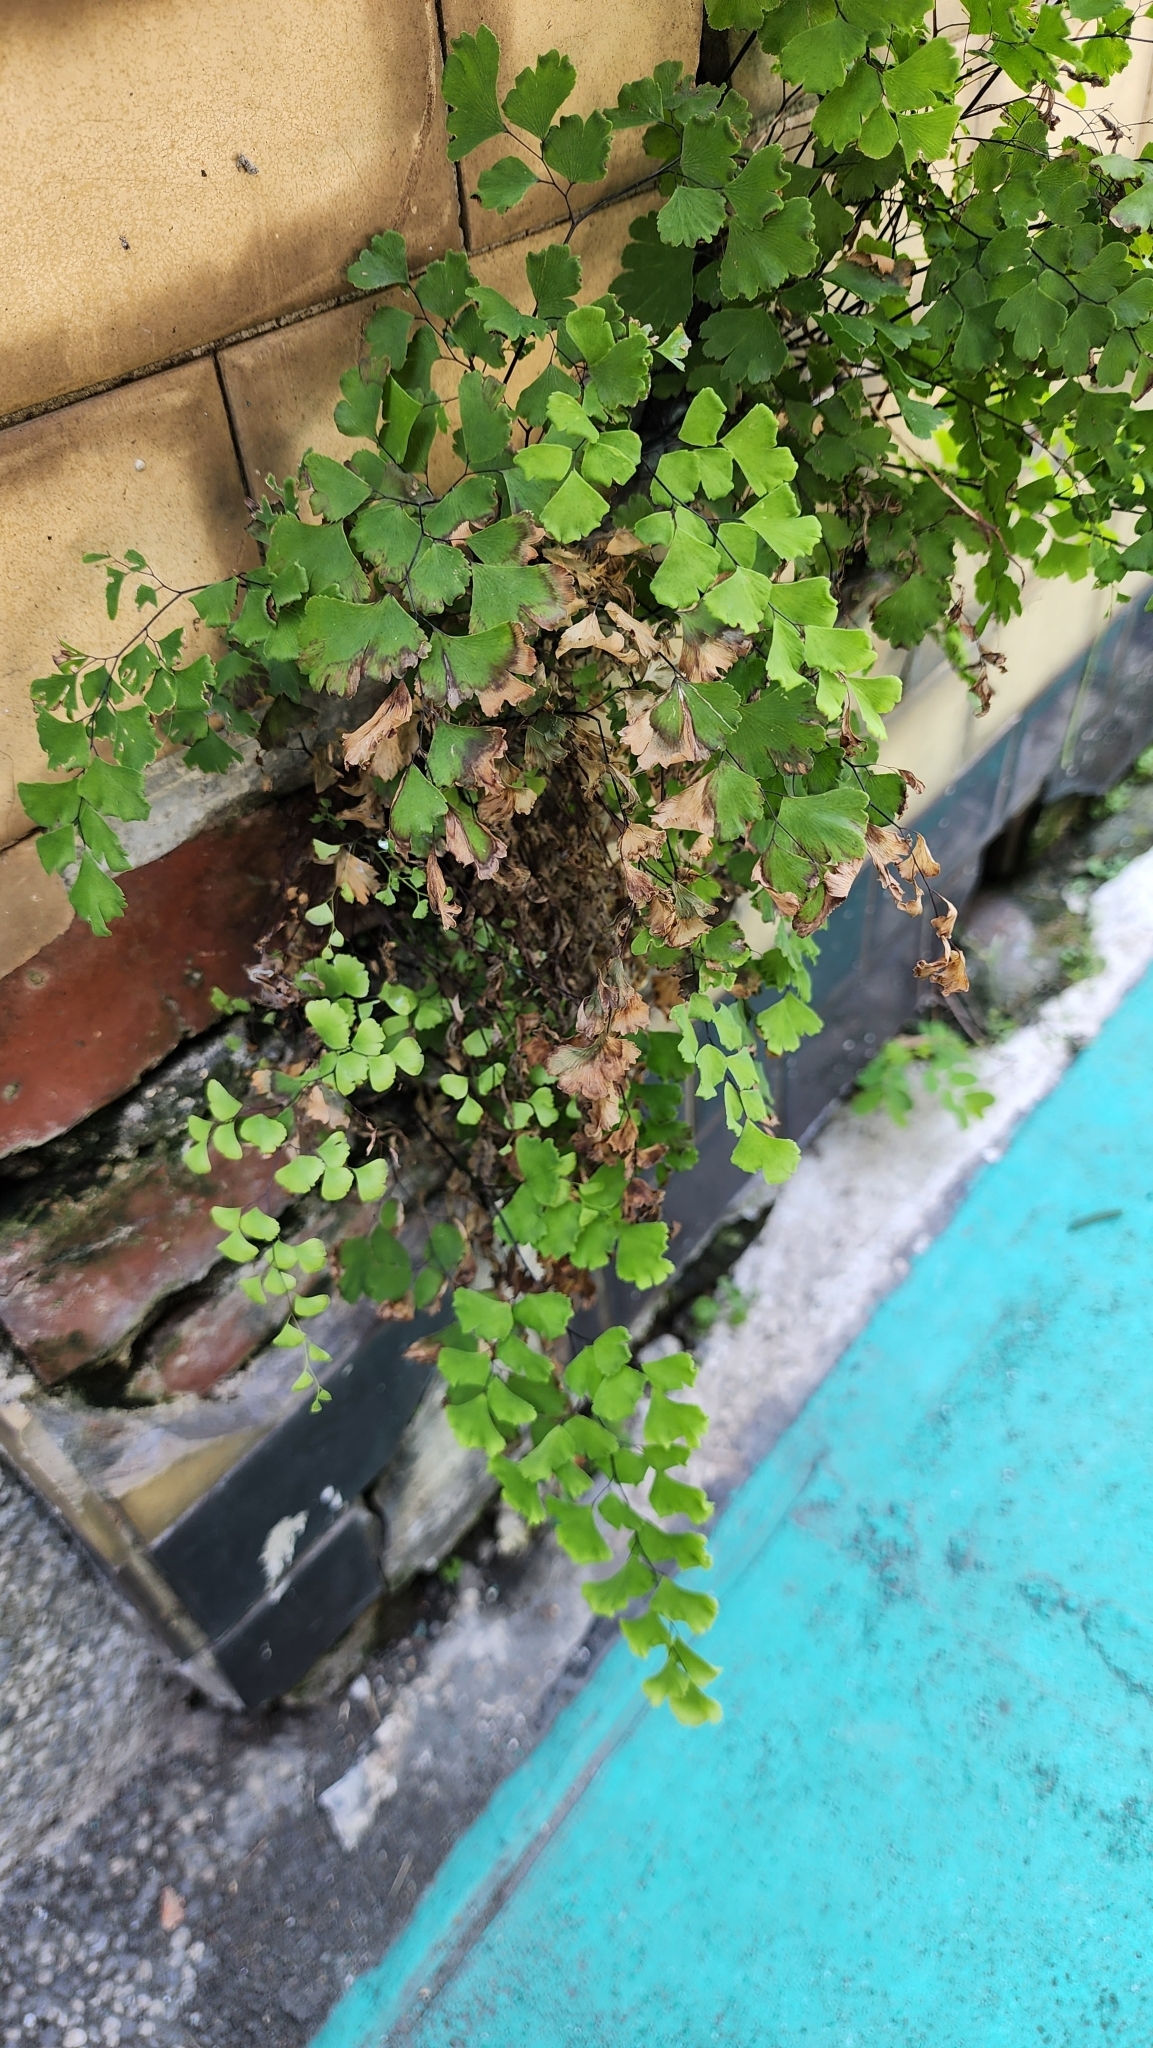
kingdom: Plantae
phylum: Tracheophyta
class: Polypodiopsida
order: Polypodiales
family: Pteridaceae
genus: Adiantum
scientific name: Adiantum capillus-veneris
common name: Maidenhair fern
